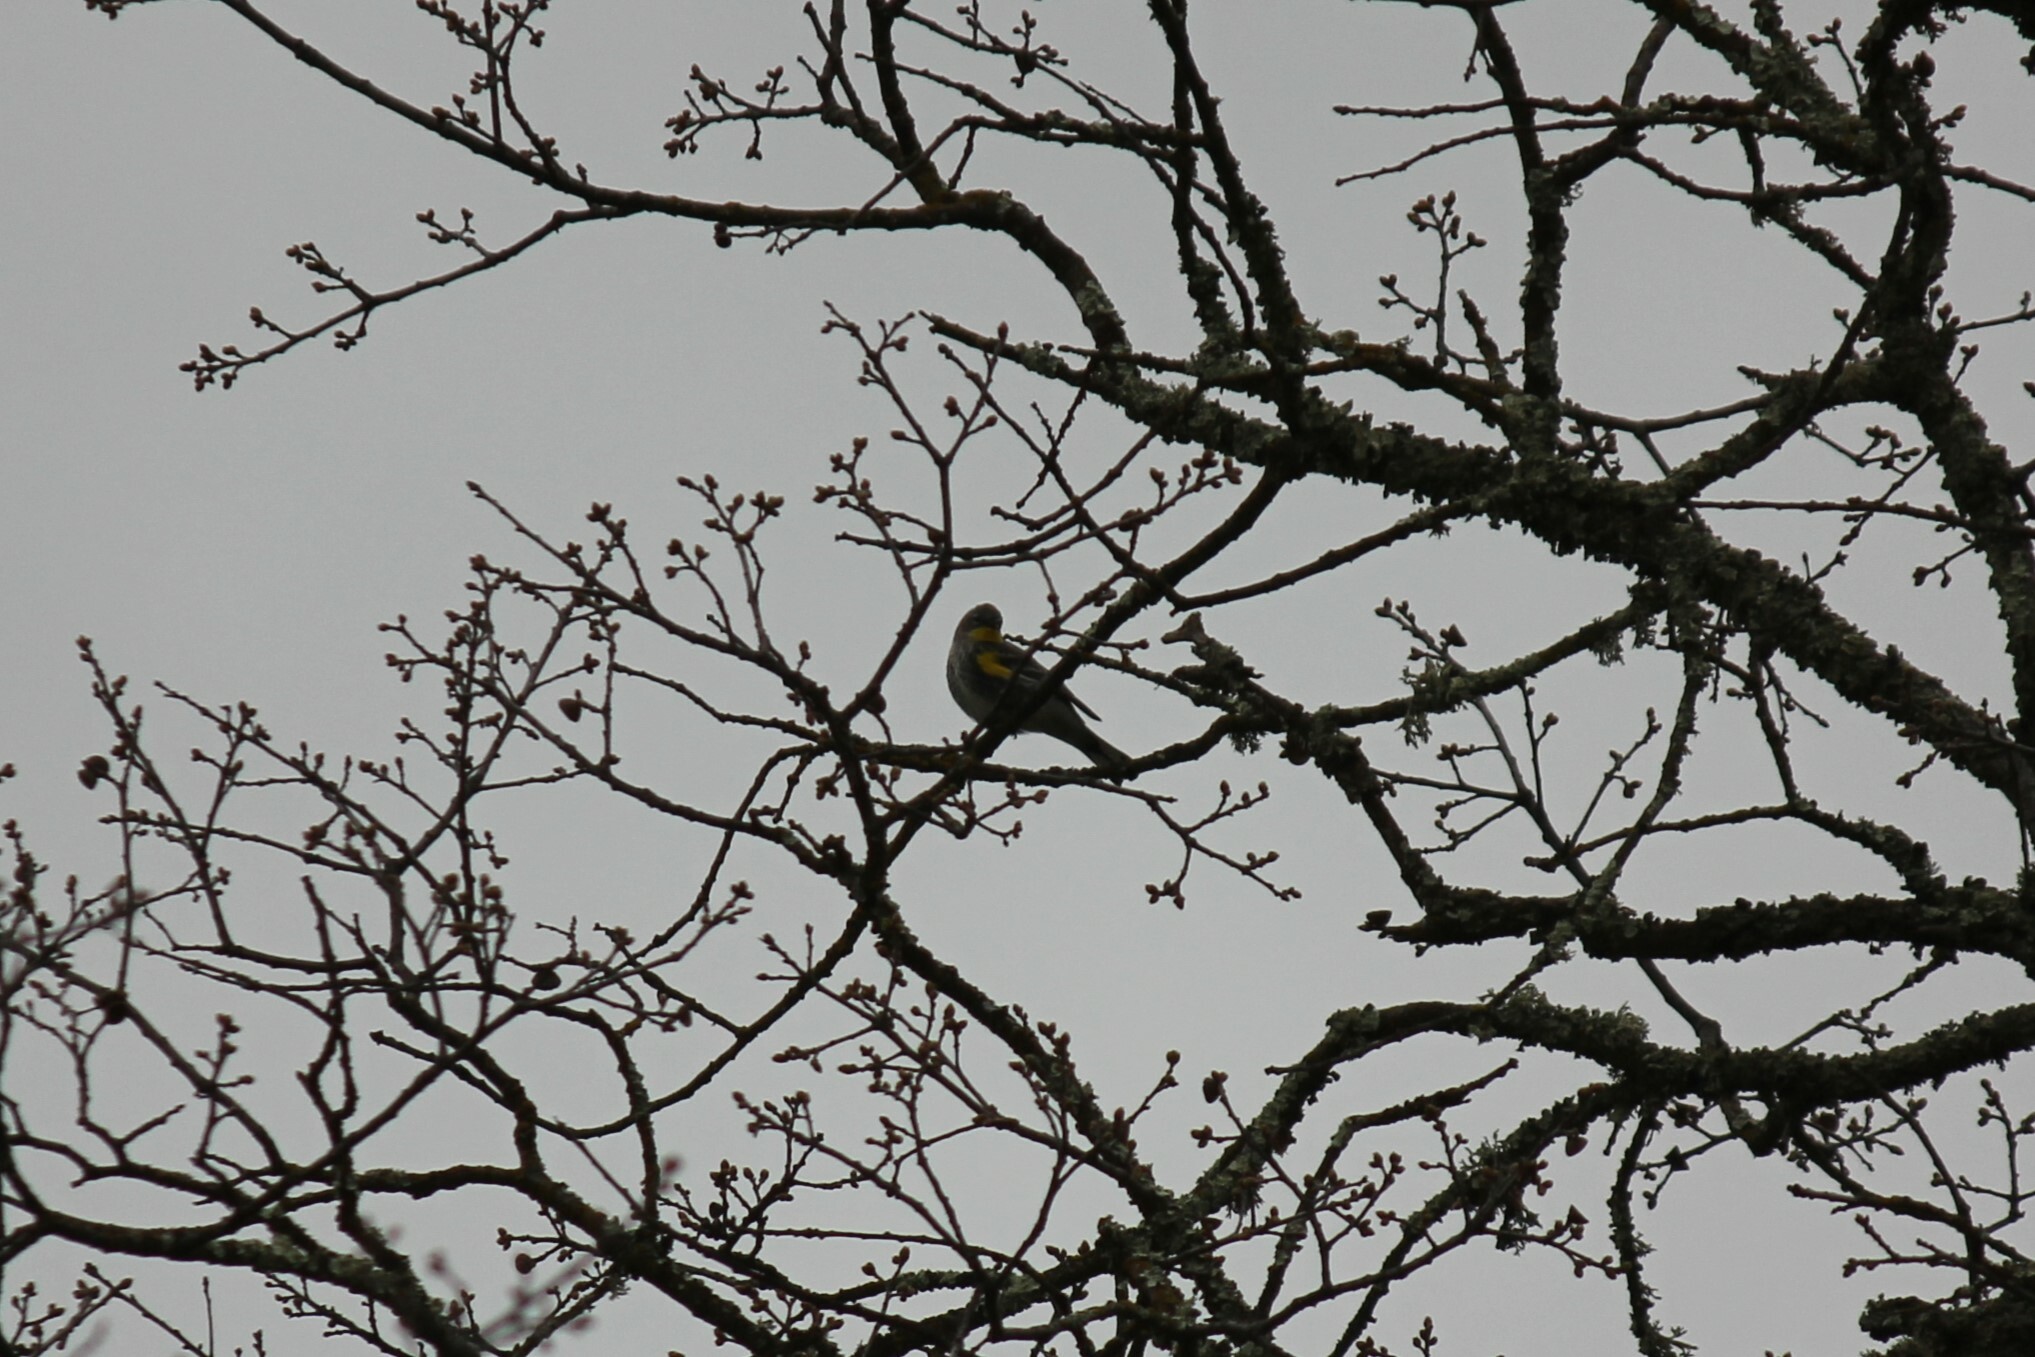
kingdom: Animalia
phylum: Chordata
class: Aves
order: Passeriformes
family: Parulidae
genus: Setophaga
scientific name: Setophaga coronata
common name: Myrtle warbler
